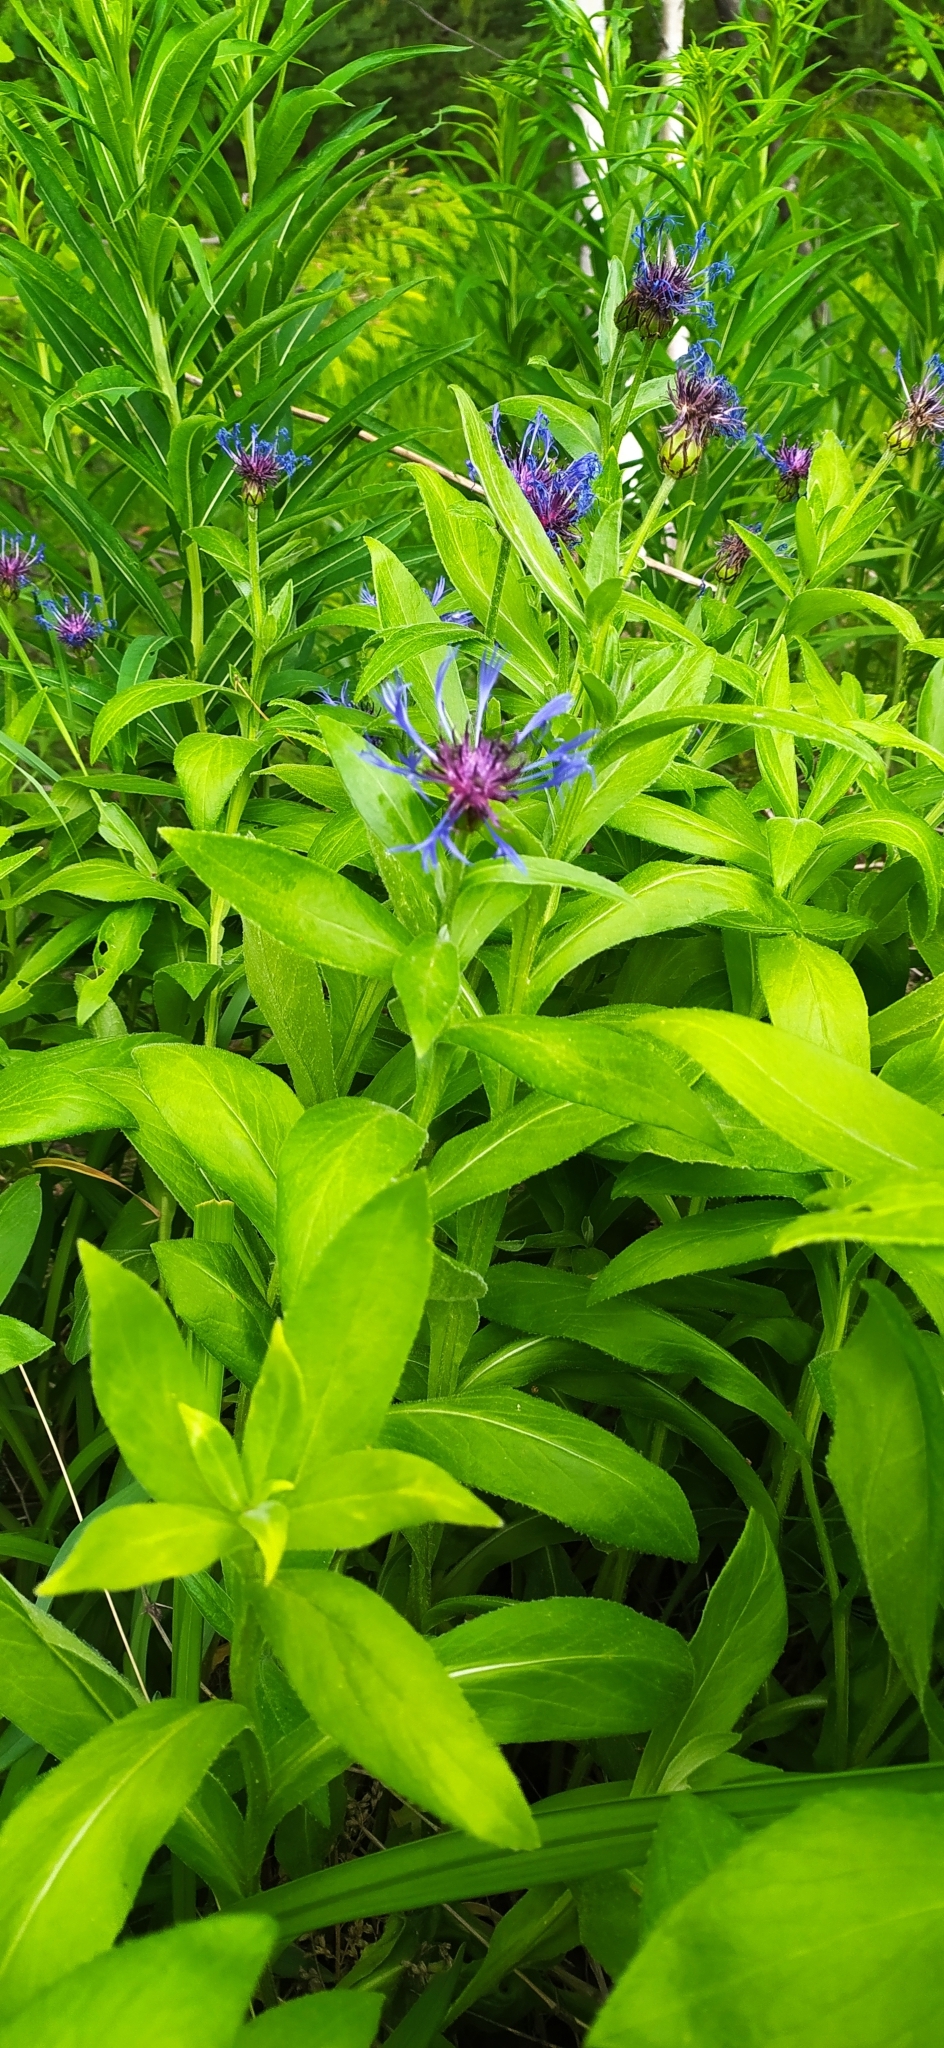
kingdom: Plantae
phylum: Tracheophyta
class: Magnoliopsida
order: Asterales
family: Asteraceae
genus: Centaurea
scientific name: Centaurea montana
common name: Perennial cornflower
